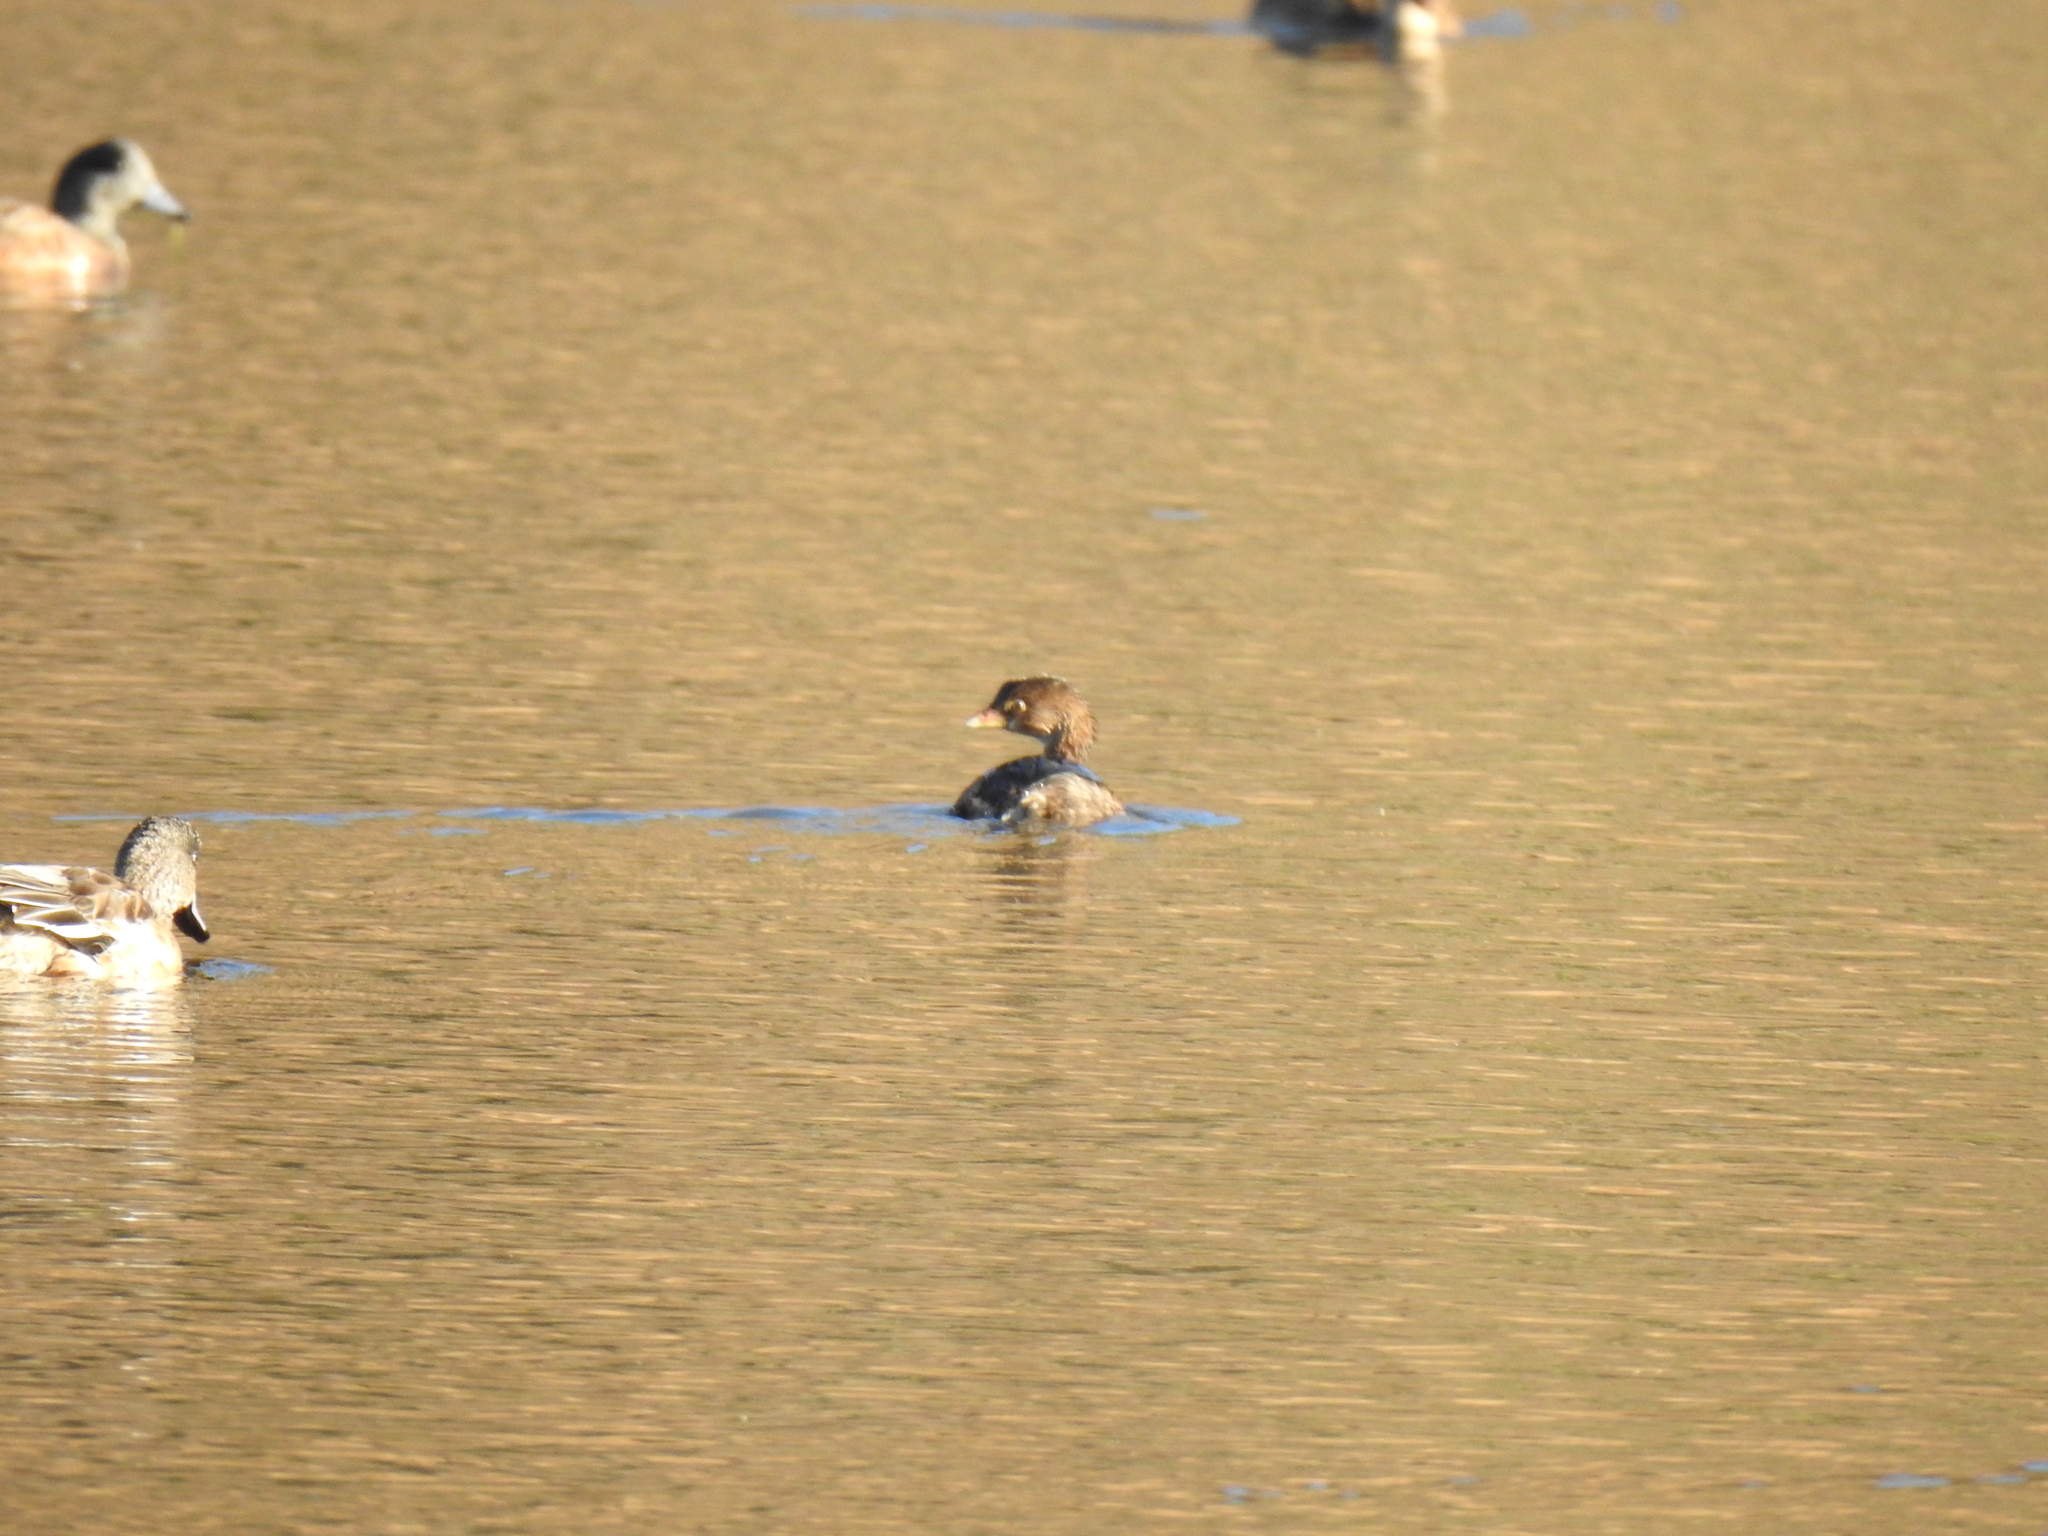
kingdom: Animalia
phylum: Chordata
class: Aves
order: Podicipediformes
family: Podicipedidae
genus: Podilymbus
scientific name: Podilymbus podiceps
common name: Pied-billed grebe
